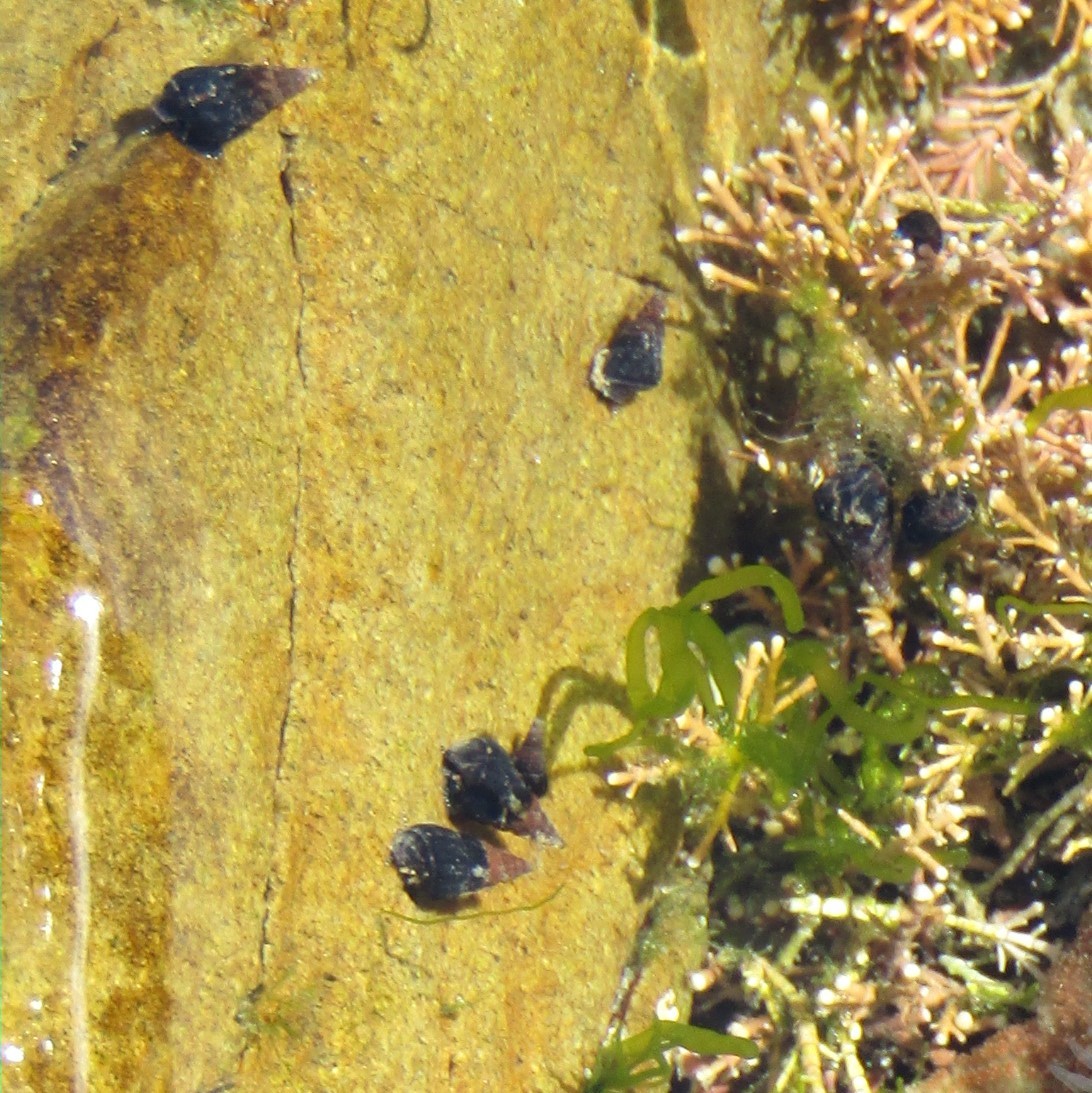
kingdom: Animalia
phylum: Mollusca
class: Gastropoda
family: Batillariidae
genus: Zeacumantus
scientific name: Zeacumantus subcarinatus
